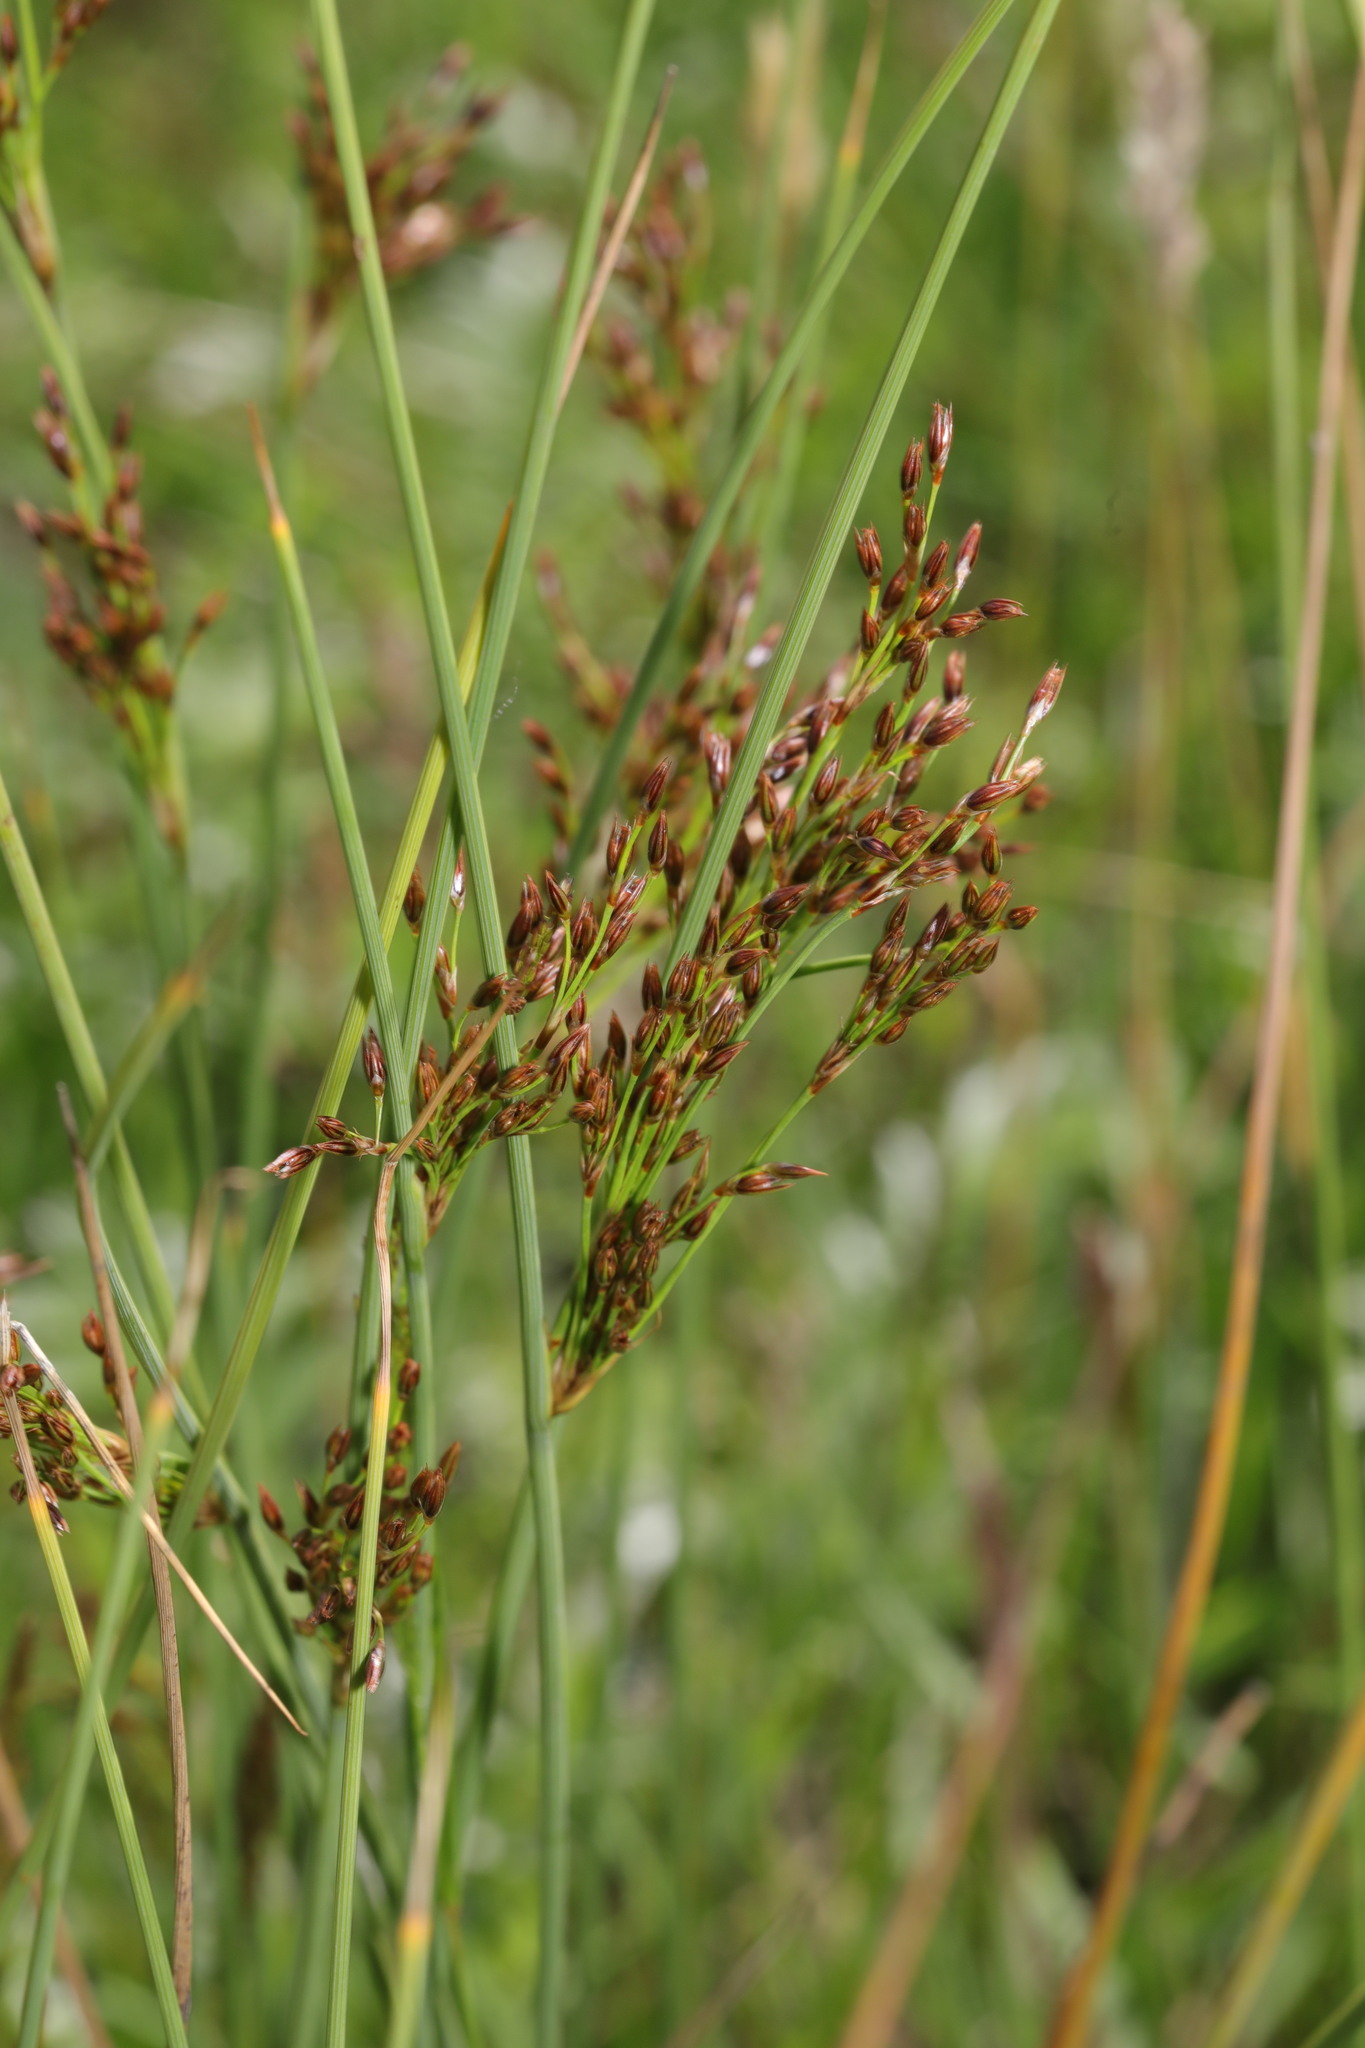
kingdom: Plantae
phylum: Tracheophyta
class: Liliopsida
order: Poales
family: Juncaceae
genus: Juncus
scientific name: Juncus inflexus
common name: Hard rush
